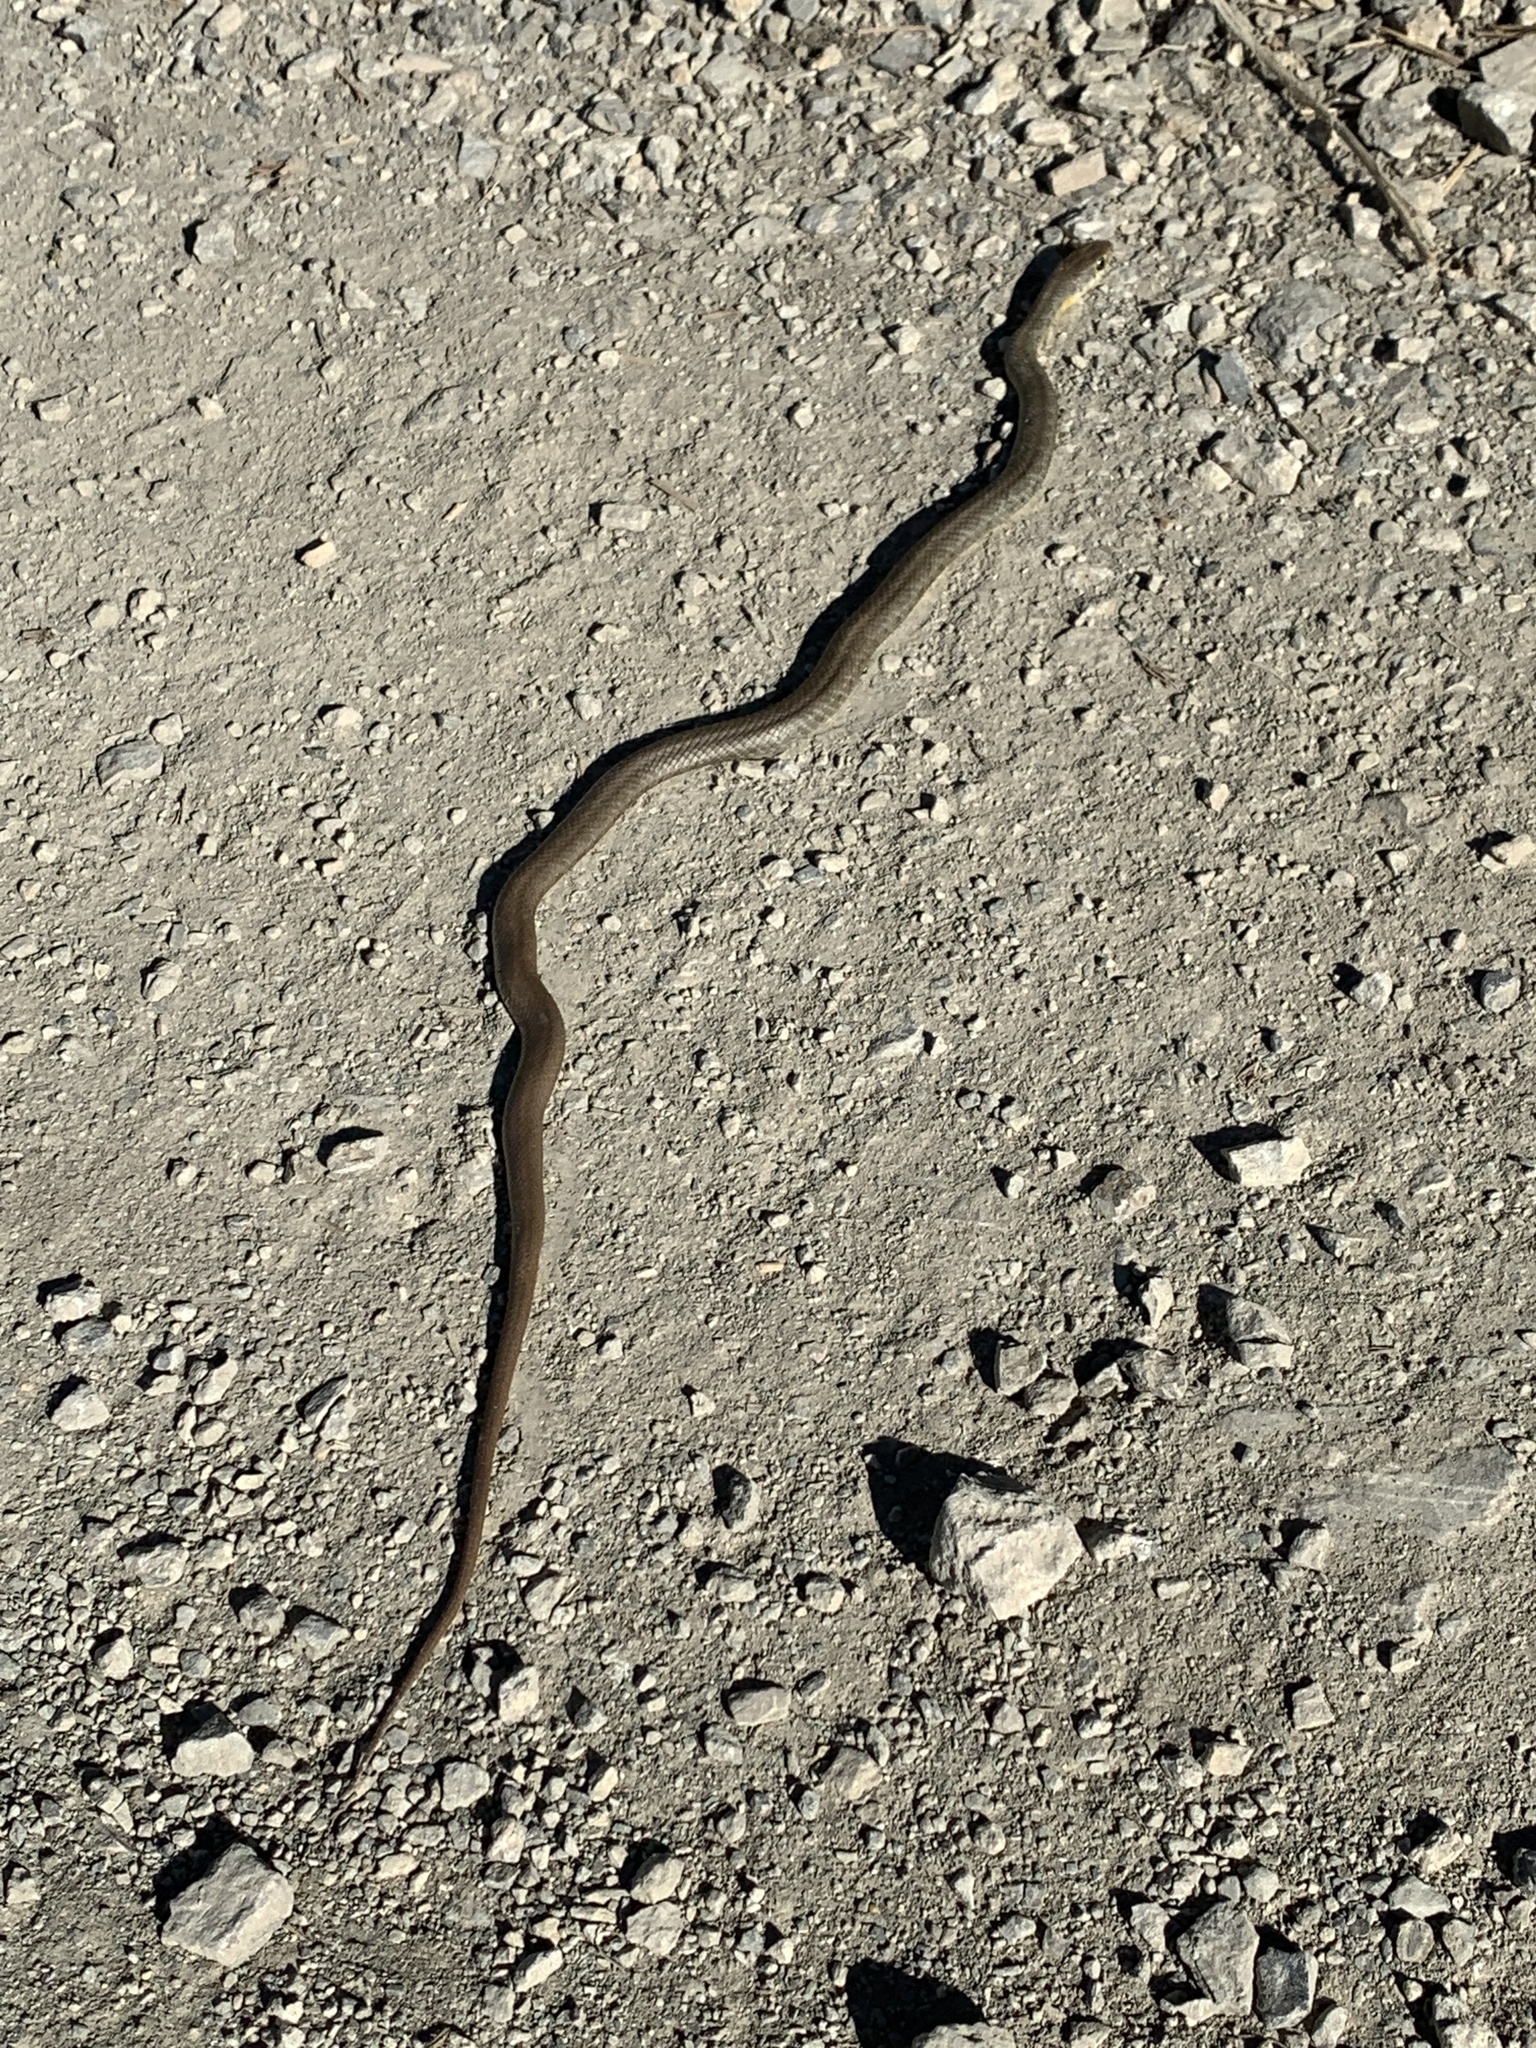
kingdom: Animalia
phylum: Chordata
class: Squamata
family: Colubridae
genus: Coluber
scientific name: Coluber constrictor
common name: Eastern racer
